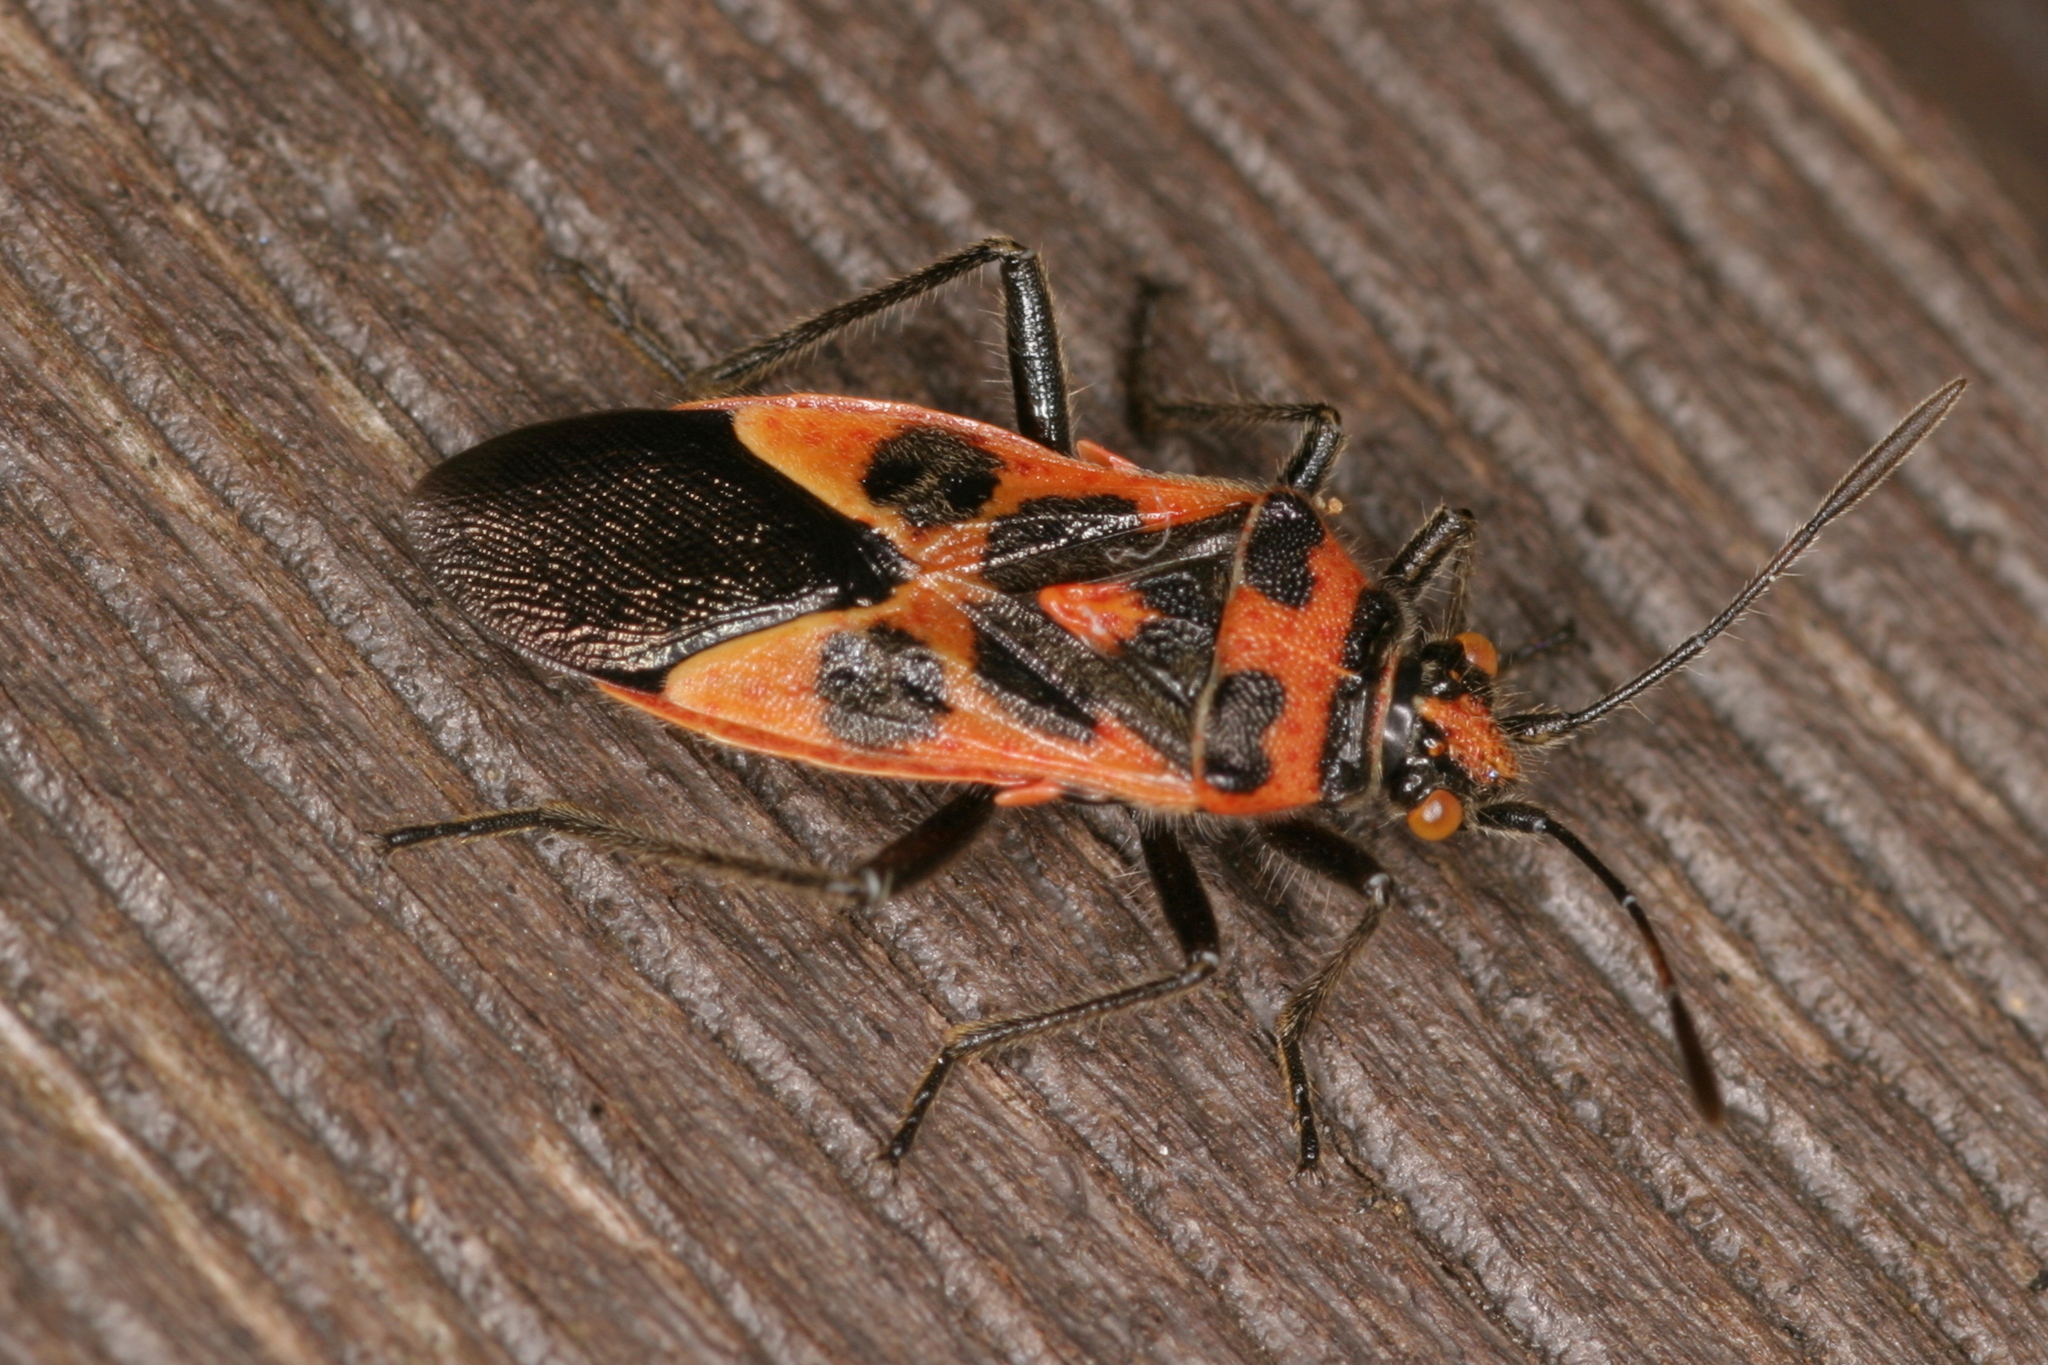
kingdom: Animalia
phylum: Arthropoda
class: Insecta
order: Hemiptera
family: Rhopalidae
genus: Corizus
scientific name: Corizus hyoscyami
